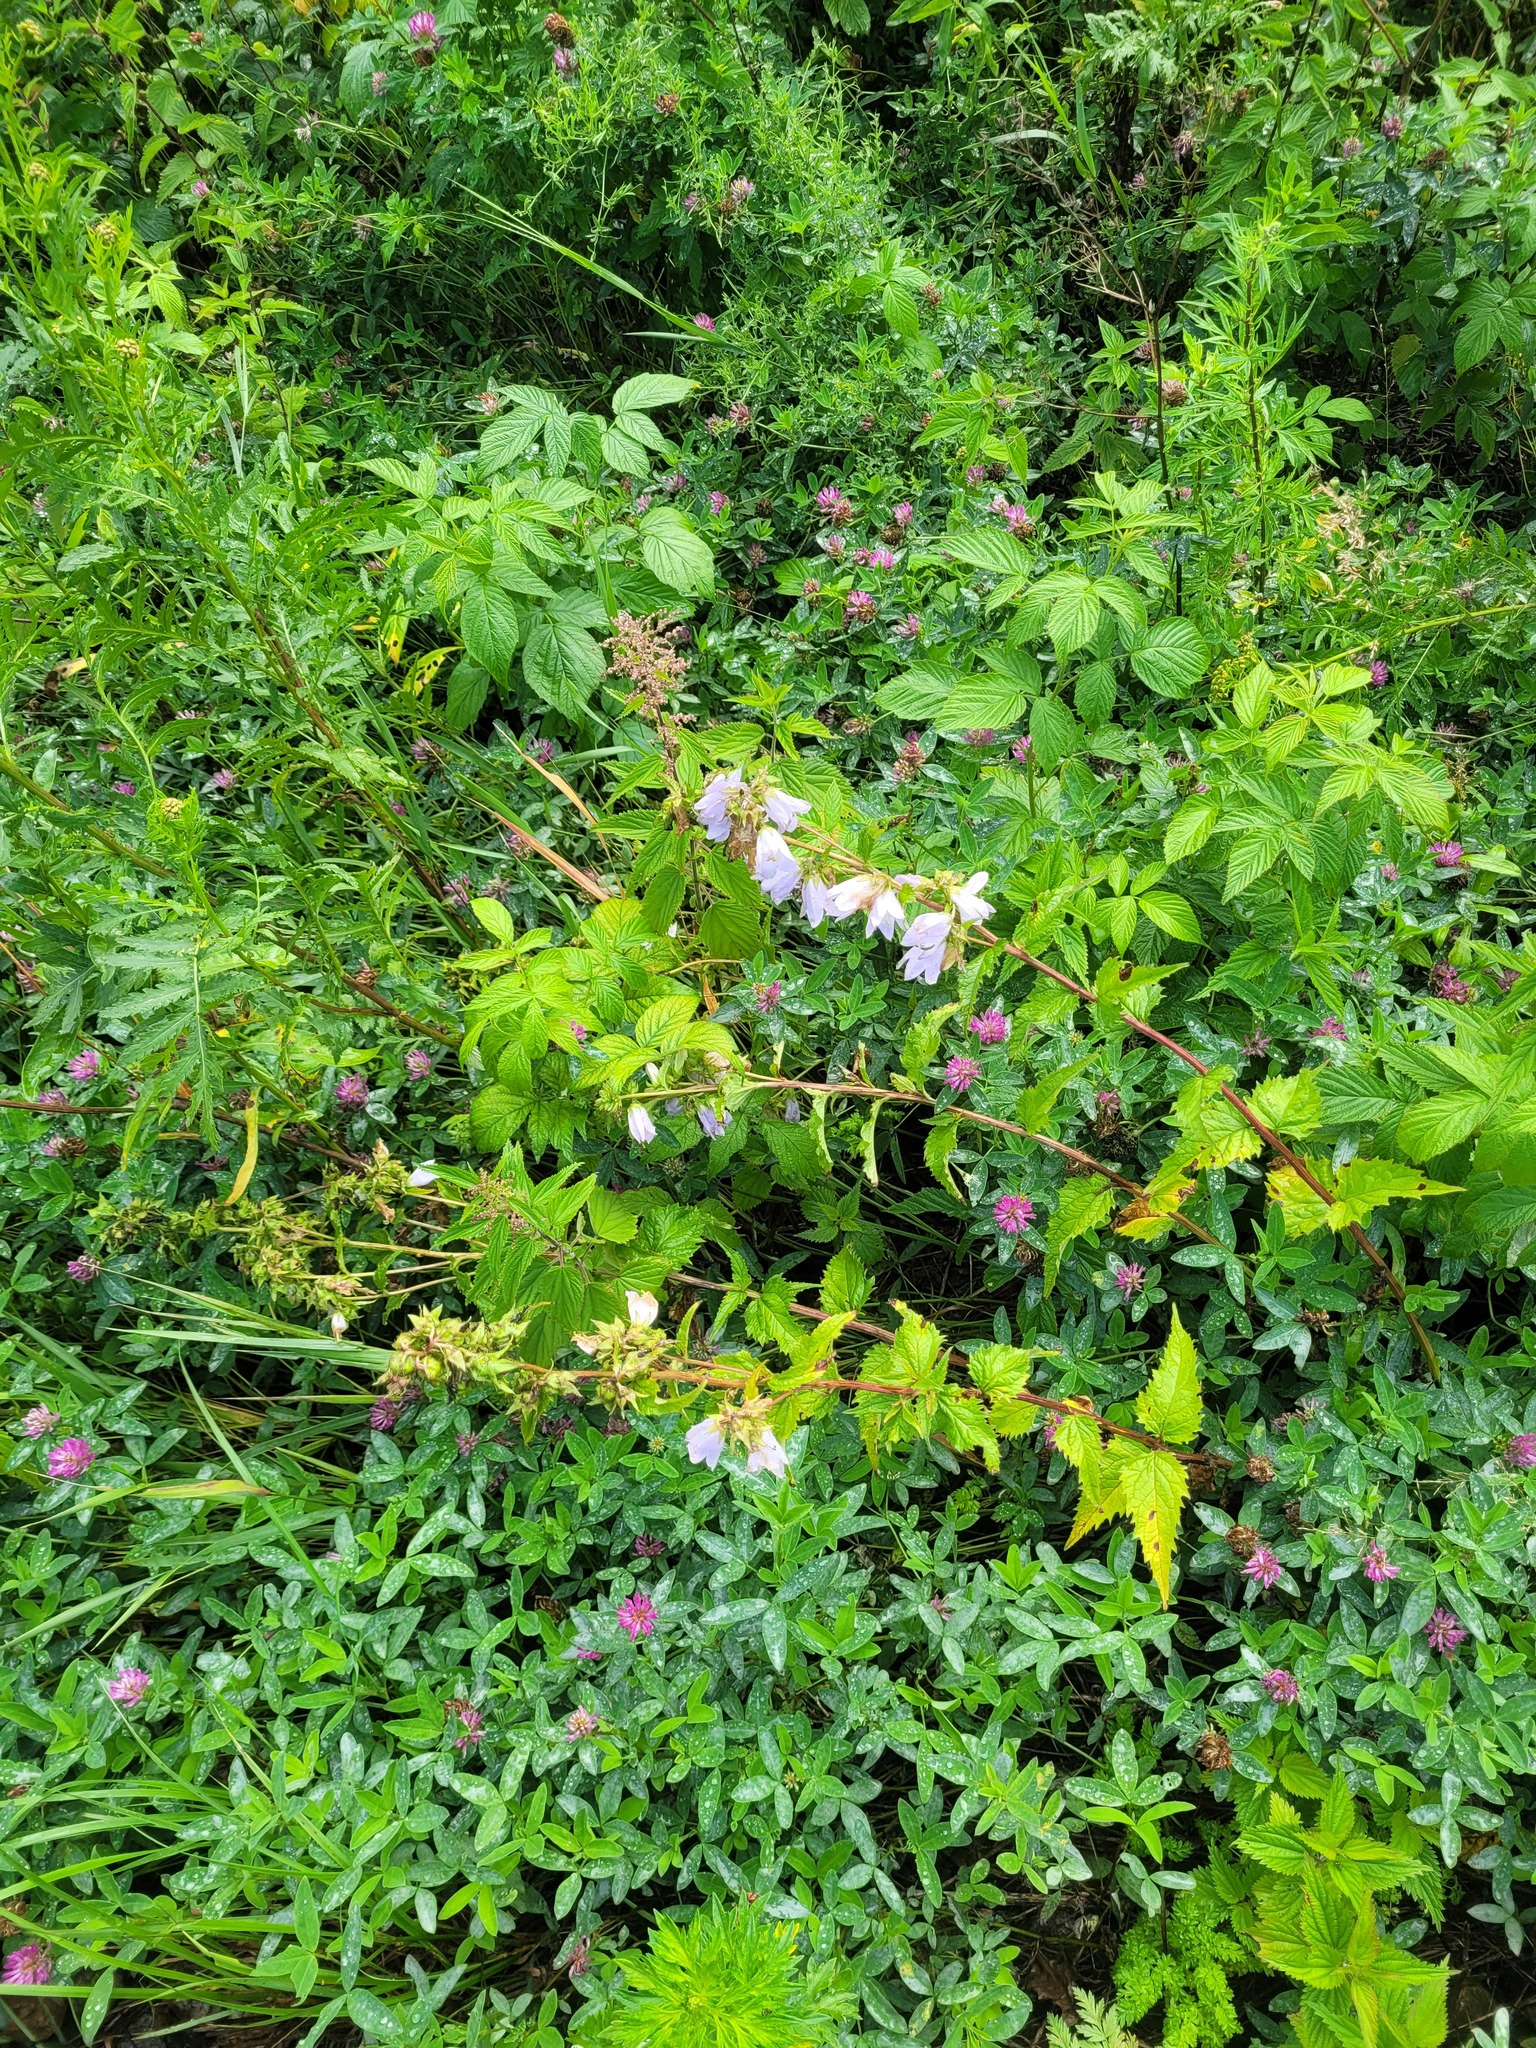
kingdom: Plantae
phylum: Tracheophyta
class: Magnoliopsida
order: Asterales
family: Campanulaceae
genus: Campanula
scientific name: Campanula trachelium
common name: Nettle-leaved bellflower
